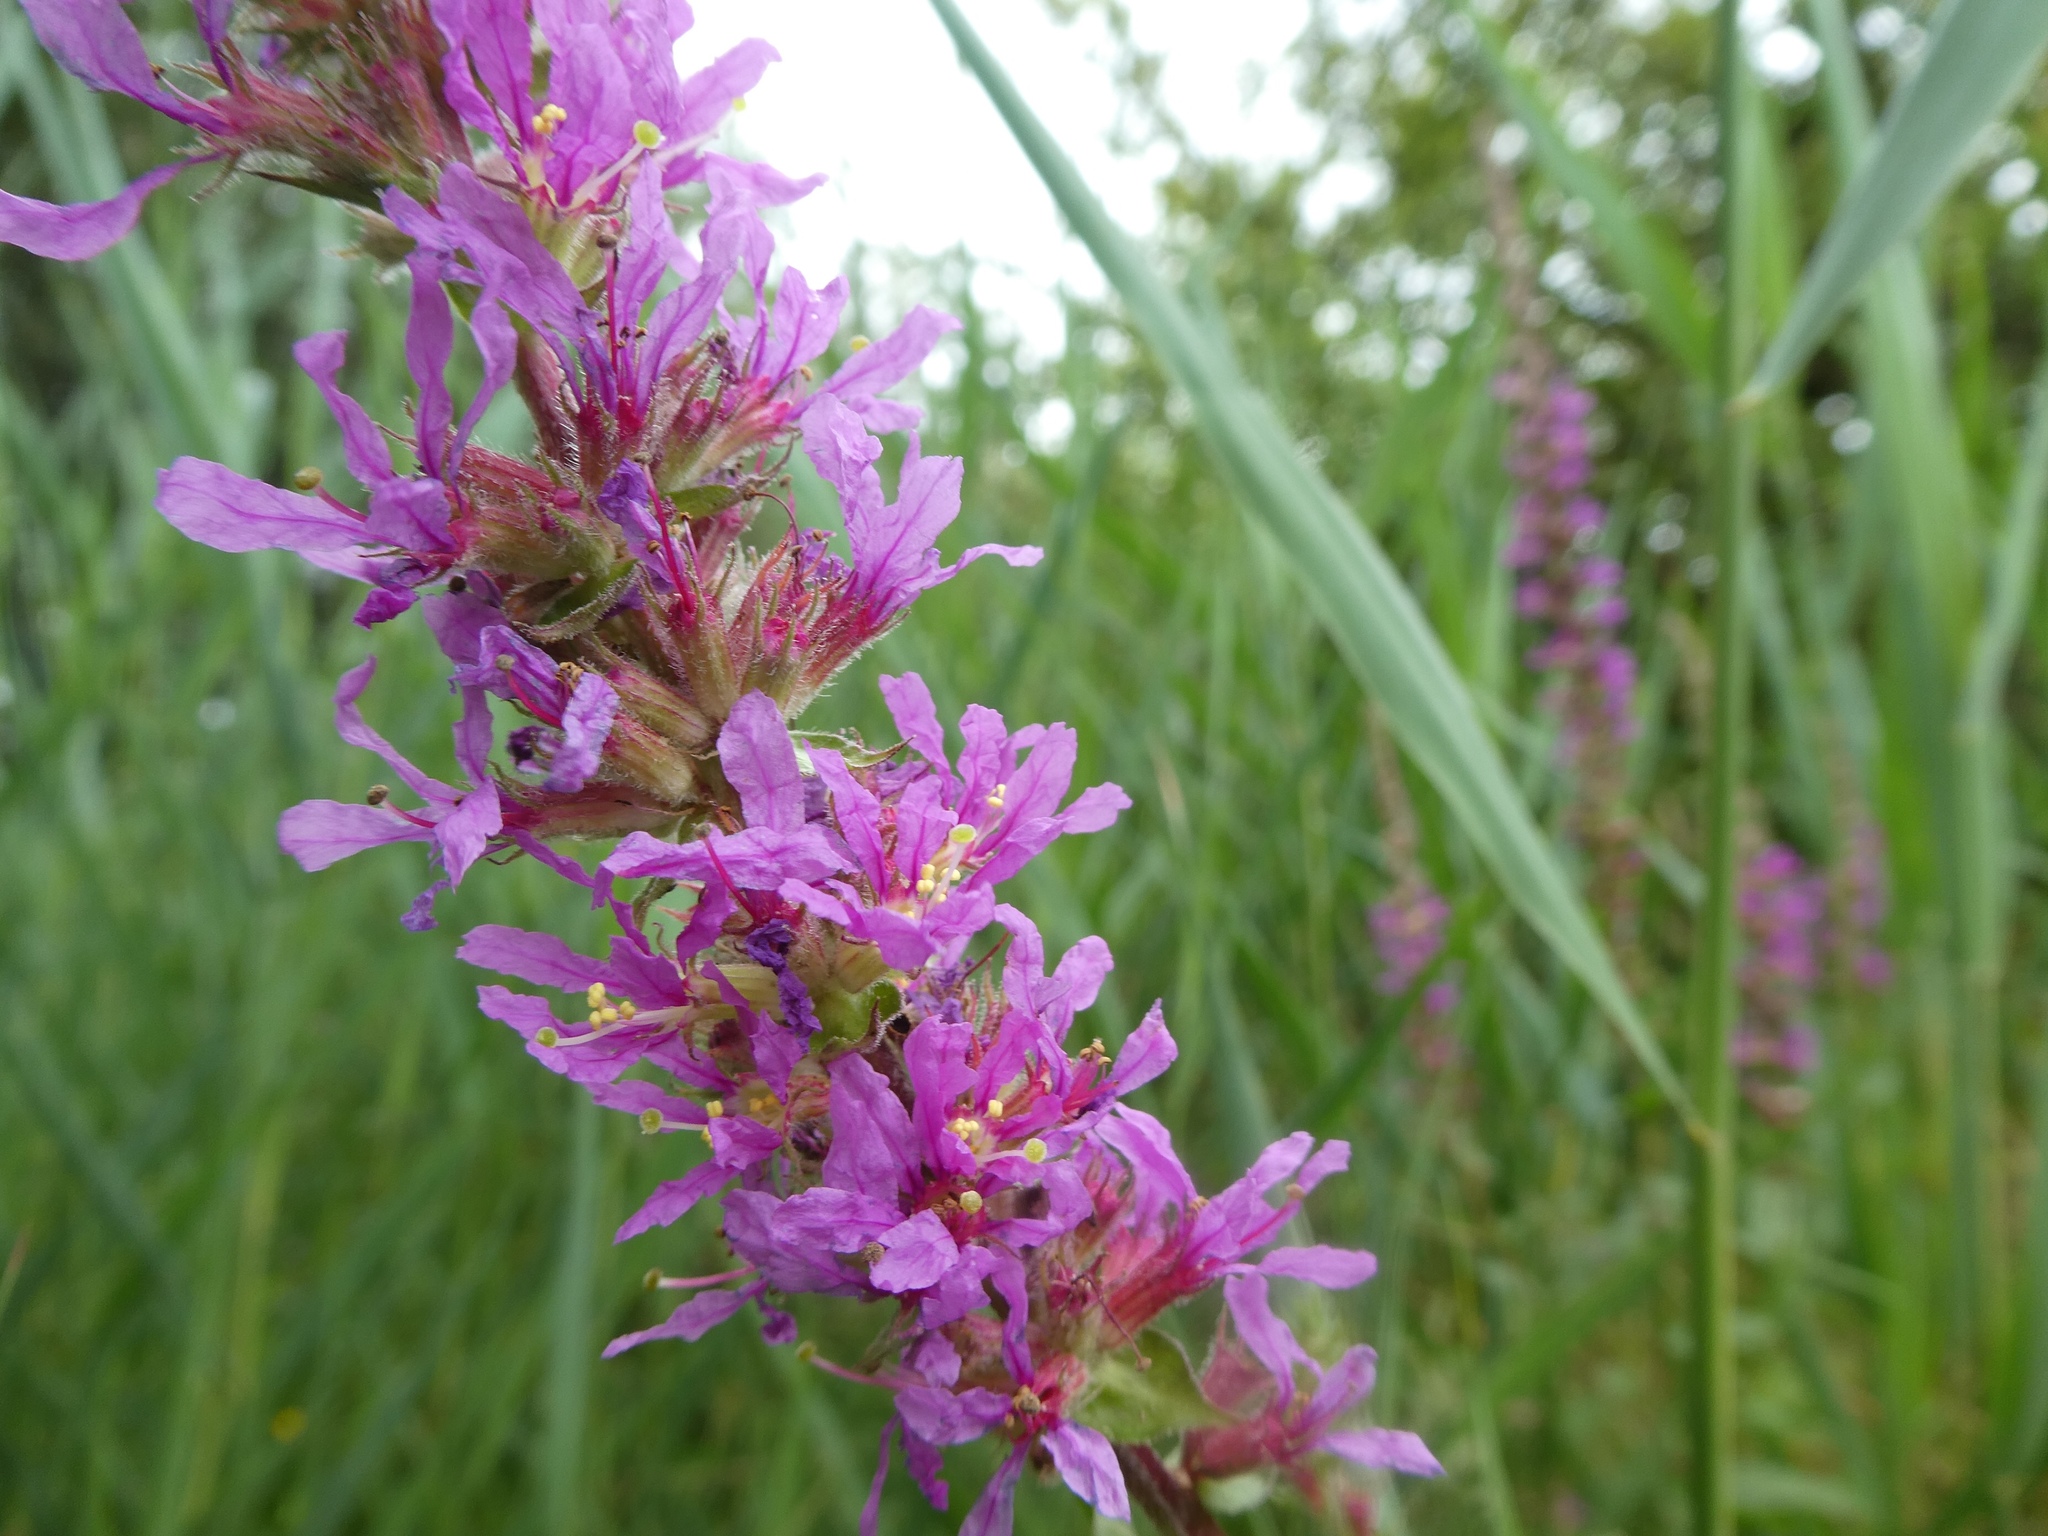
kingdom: Plantae
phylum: Tracheophyta
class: Magnoliopsida
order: Myrtales
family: Lythraceae
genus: Lythrum
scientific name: Lythrum salicaria
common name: Purple loosestrife
